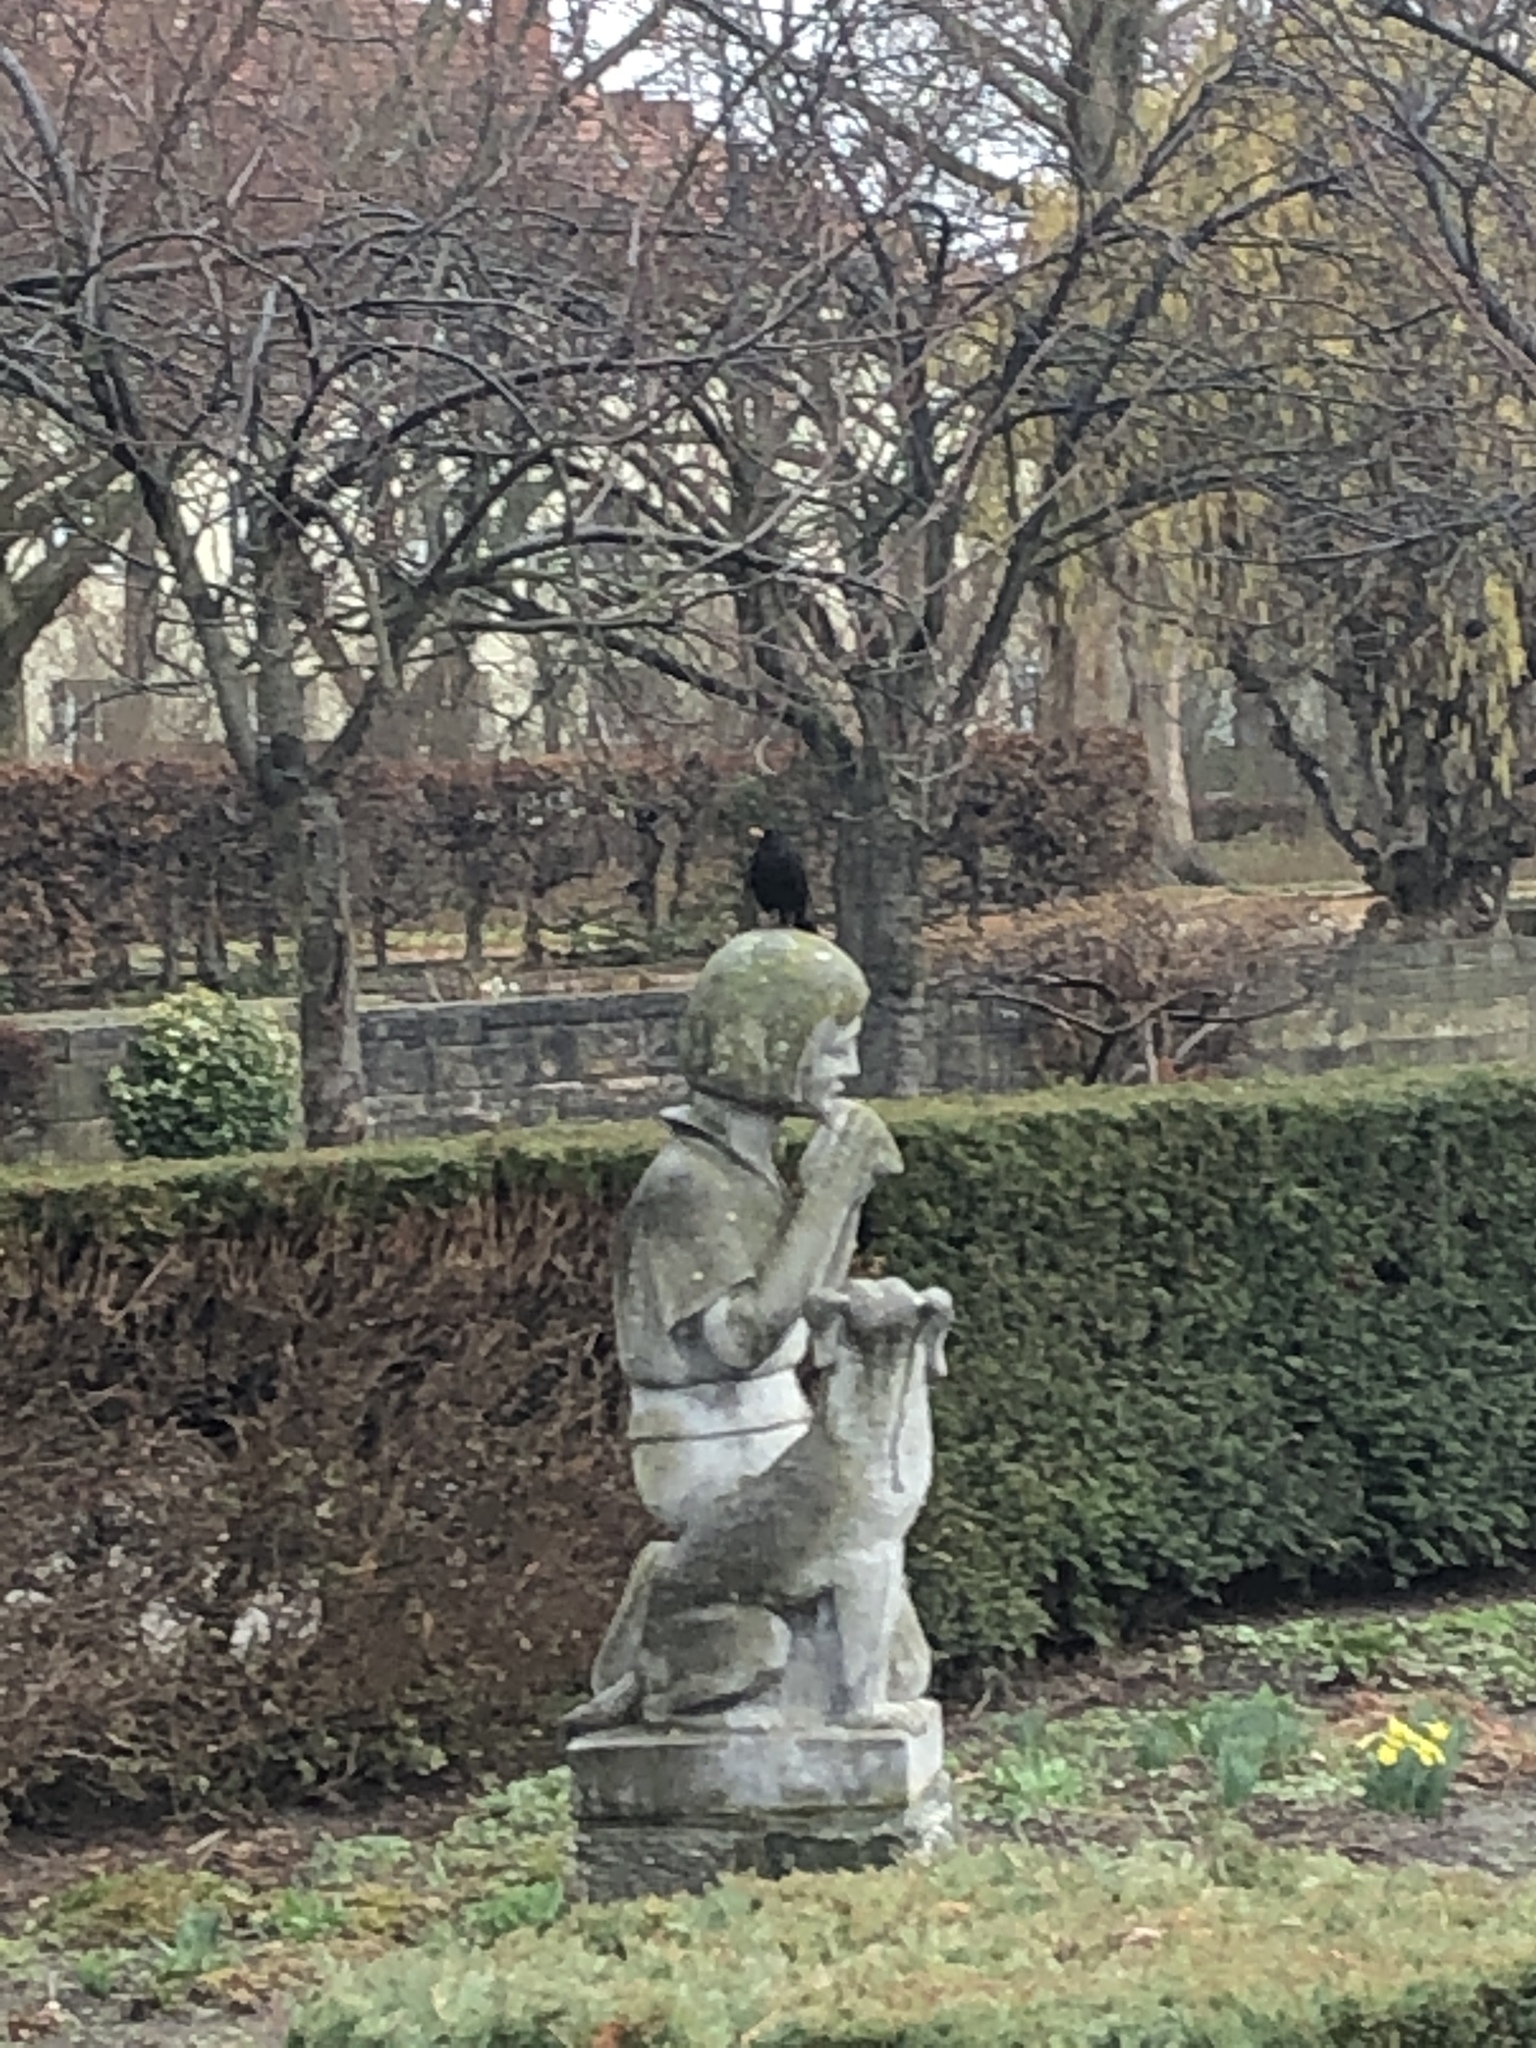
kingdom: Animalia
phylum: Chordata
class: Aves
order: Passeriformes
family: Turdidae
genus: Turdus
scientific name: Turdus merula
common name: Common blackbird
